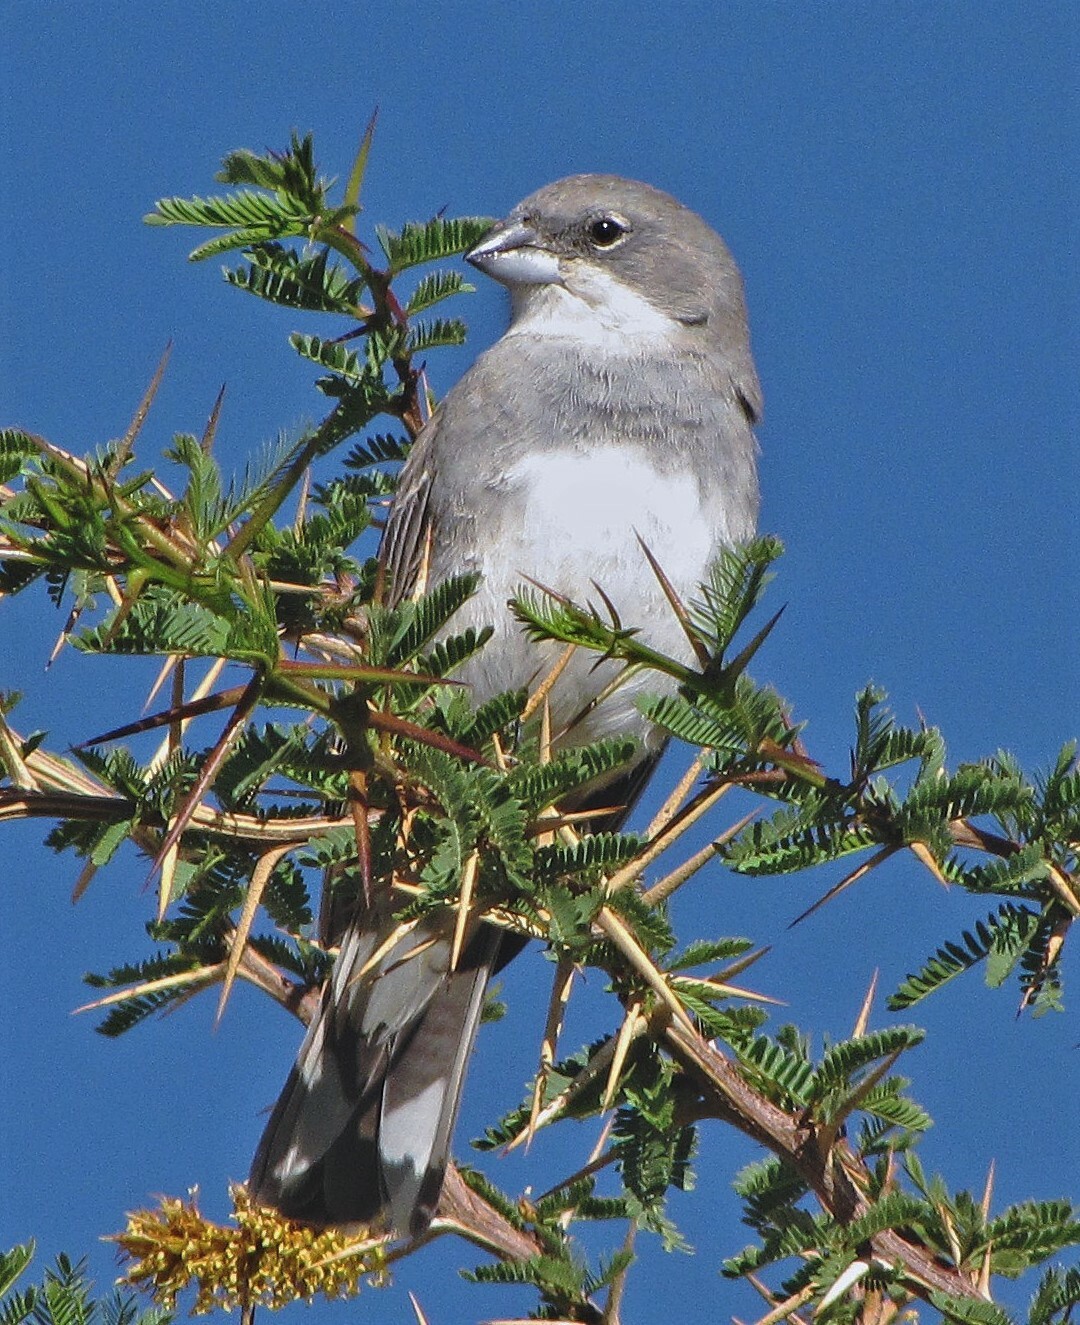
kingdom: Animalia
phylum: Chordata
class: Aves
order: Passeriformes
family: Thraupidae
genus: Diuca
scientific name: Diuca diuca
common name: Common diuca finch
